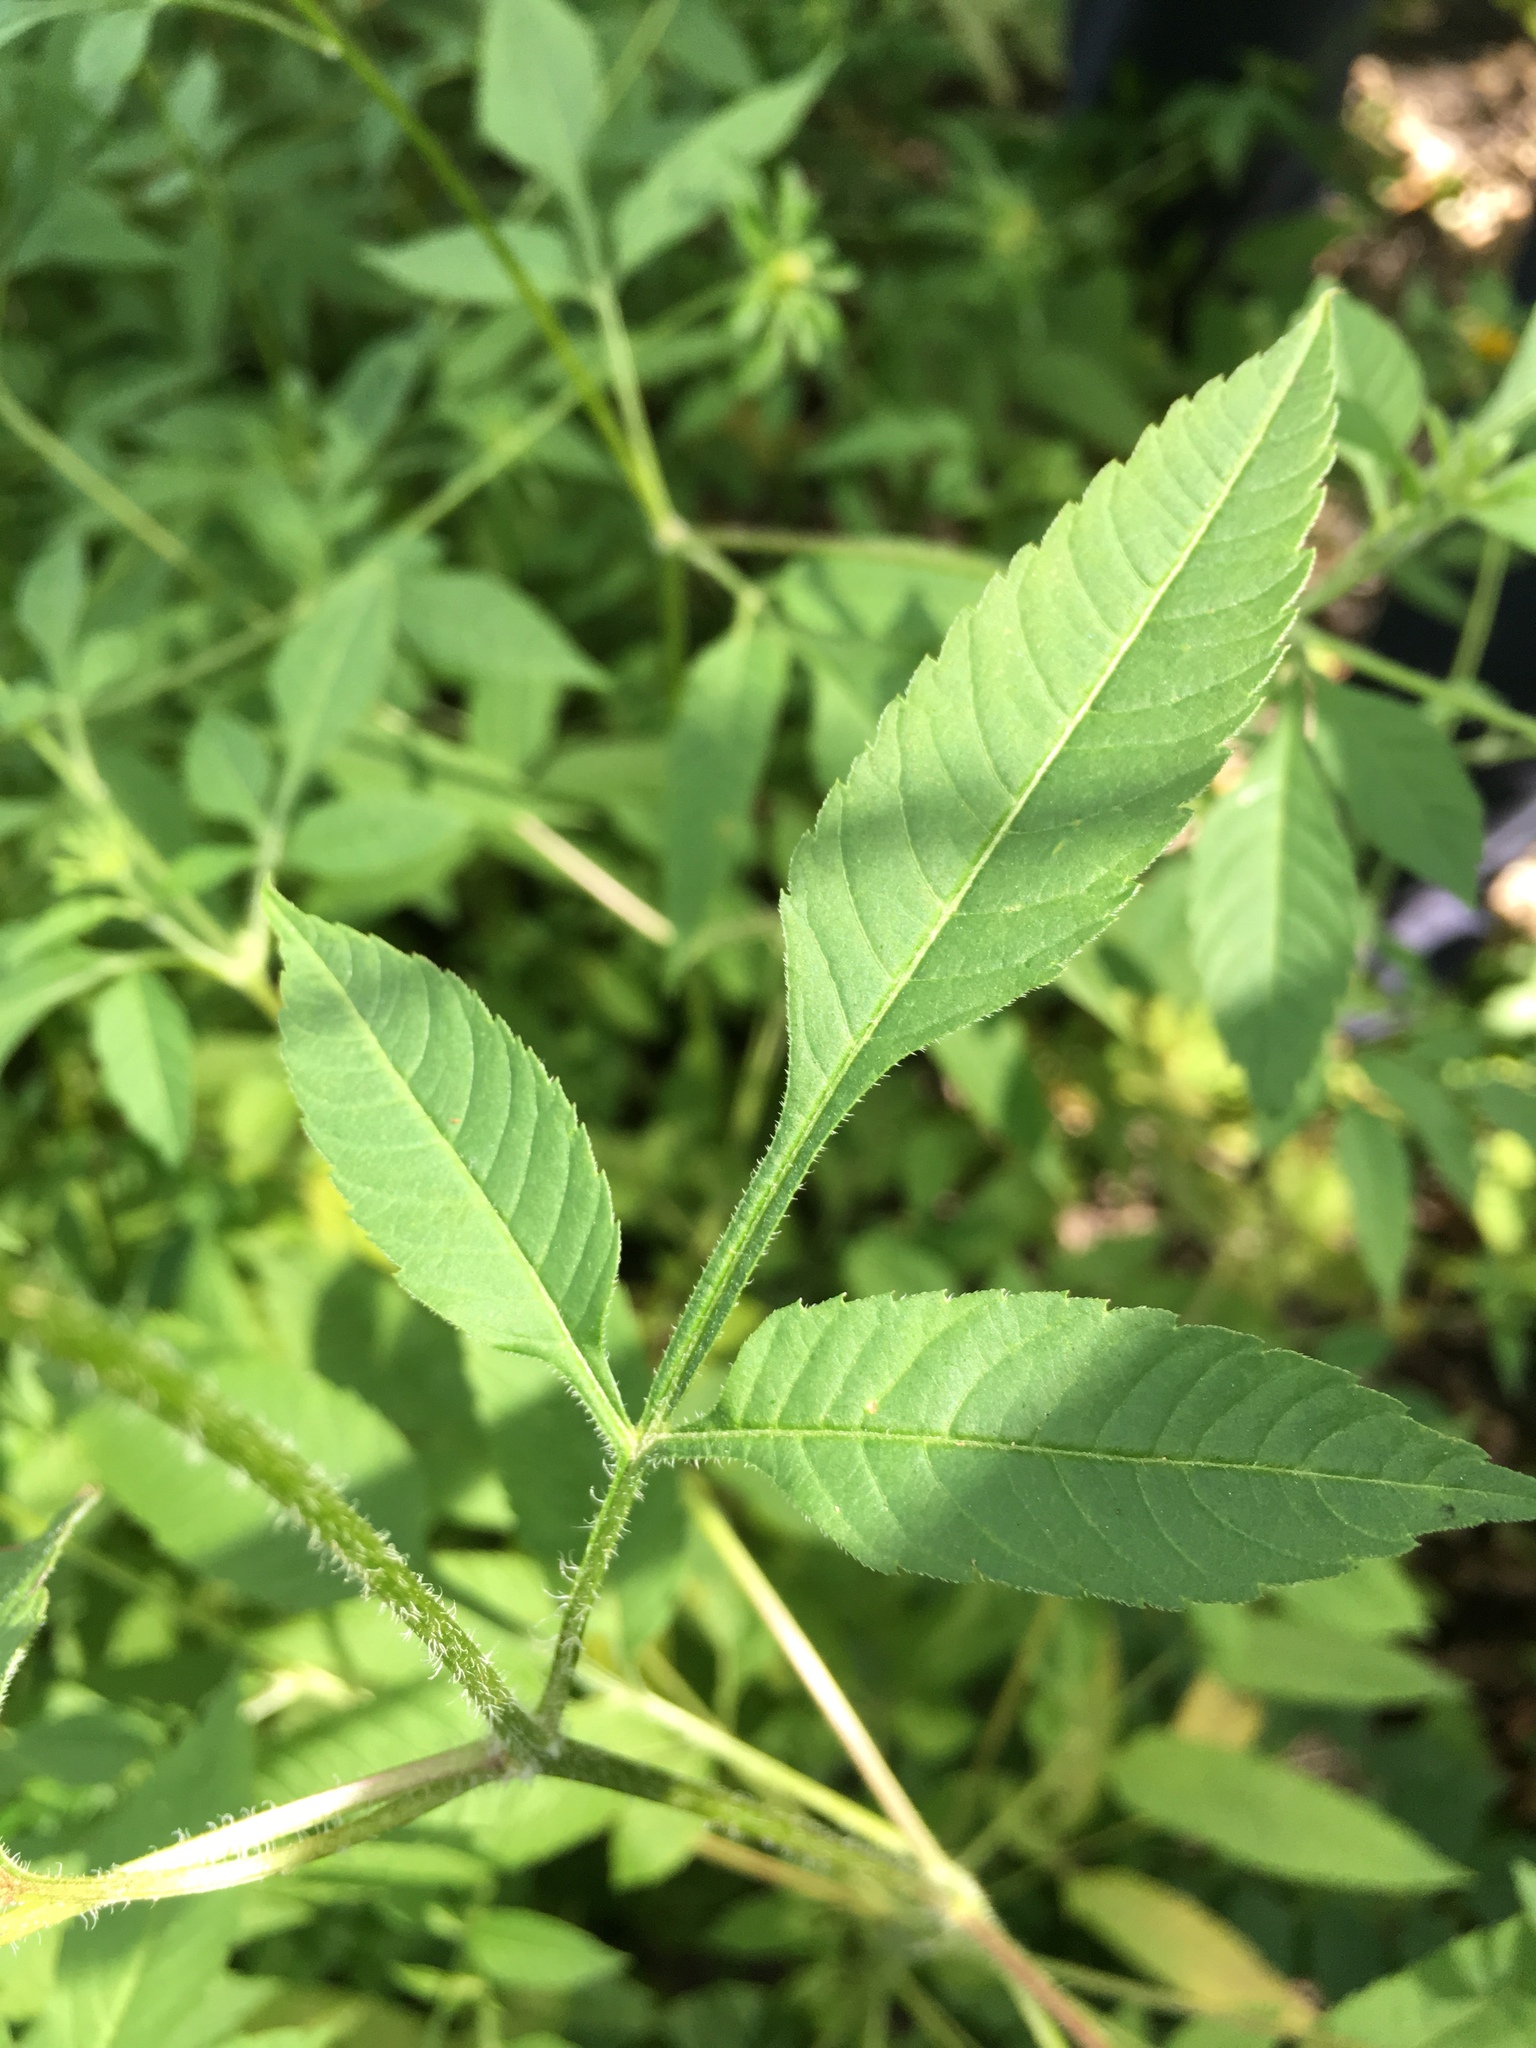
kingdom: Plantae
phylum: Tracheophyta
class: Magnoliopsida
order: Asterales
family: Asteraceae
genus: Bidens
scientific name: Bidens vulgata
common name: Tall beggarticks
